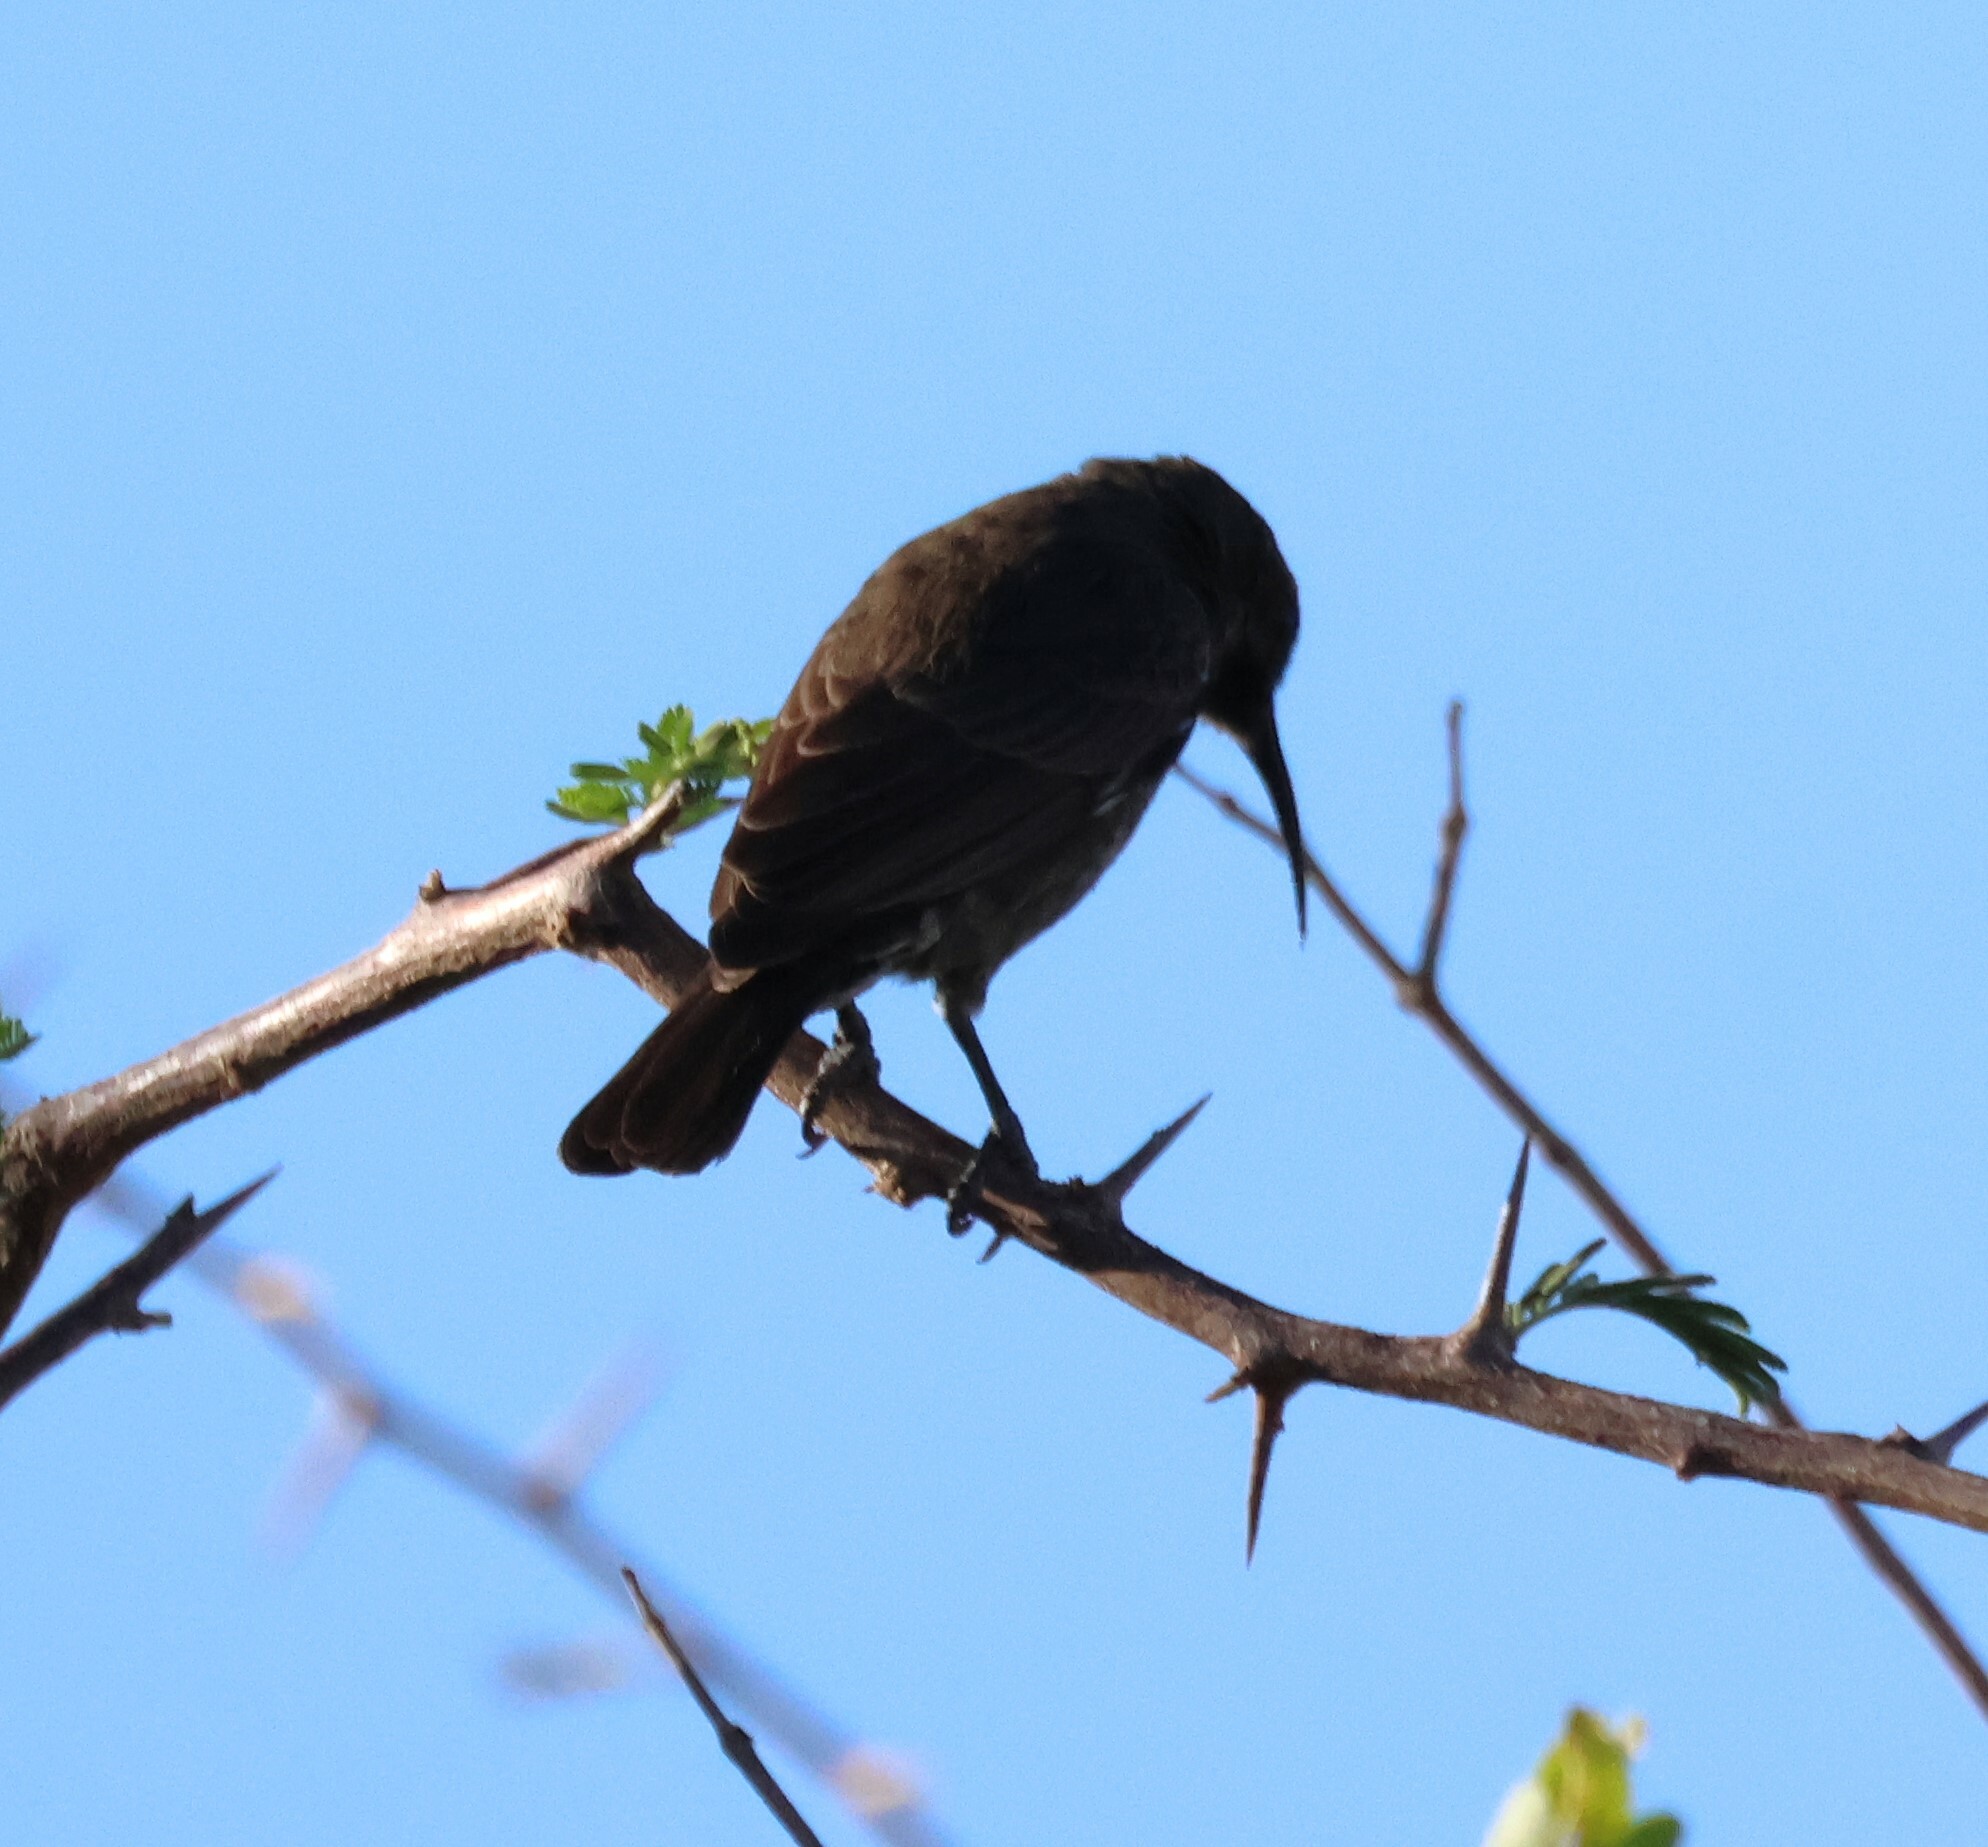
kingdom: Animalia
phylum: Chordata
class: Aves
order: Passeriformes
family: Nectariniidae
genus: Chalcomitra
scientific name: Chalcomitra senegalensis
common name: Scarlet-chested sunbird
